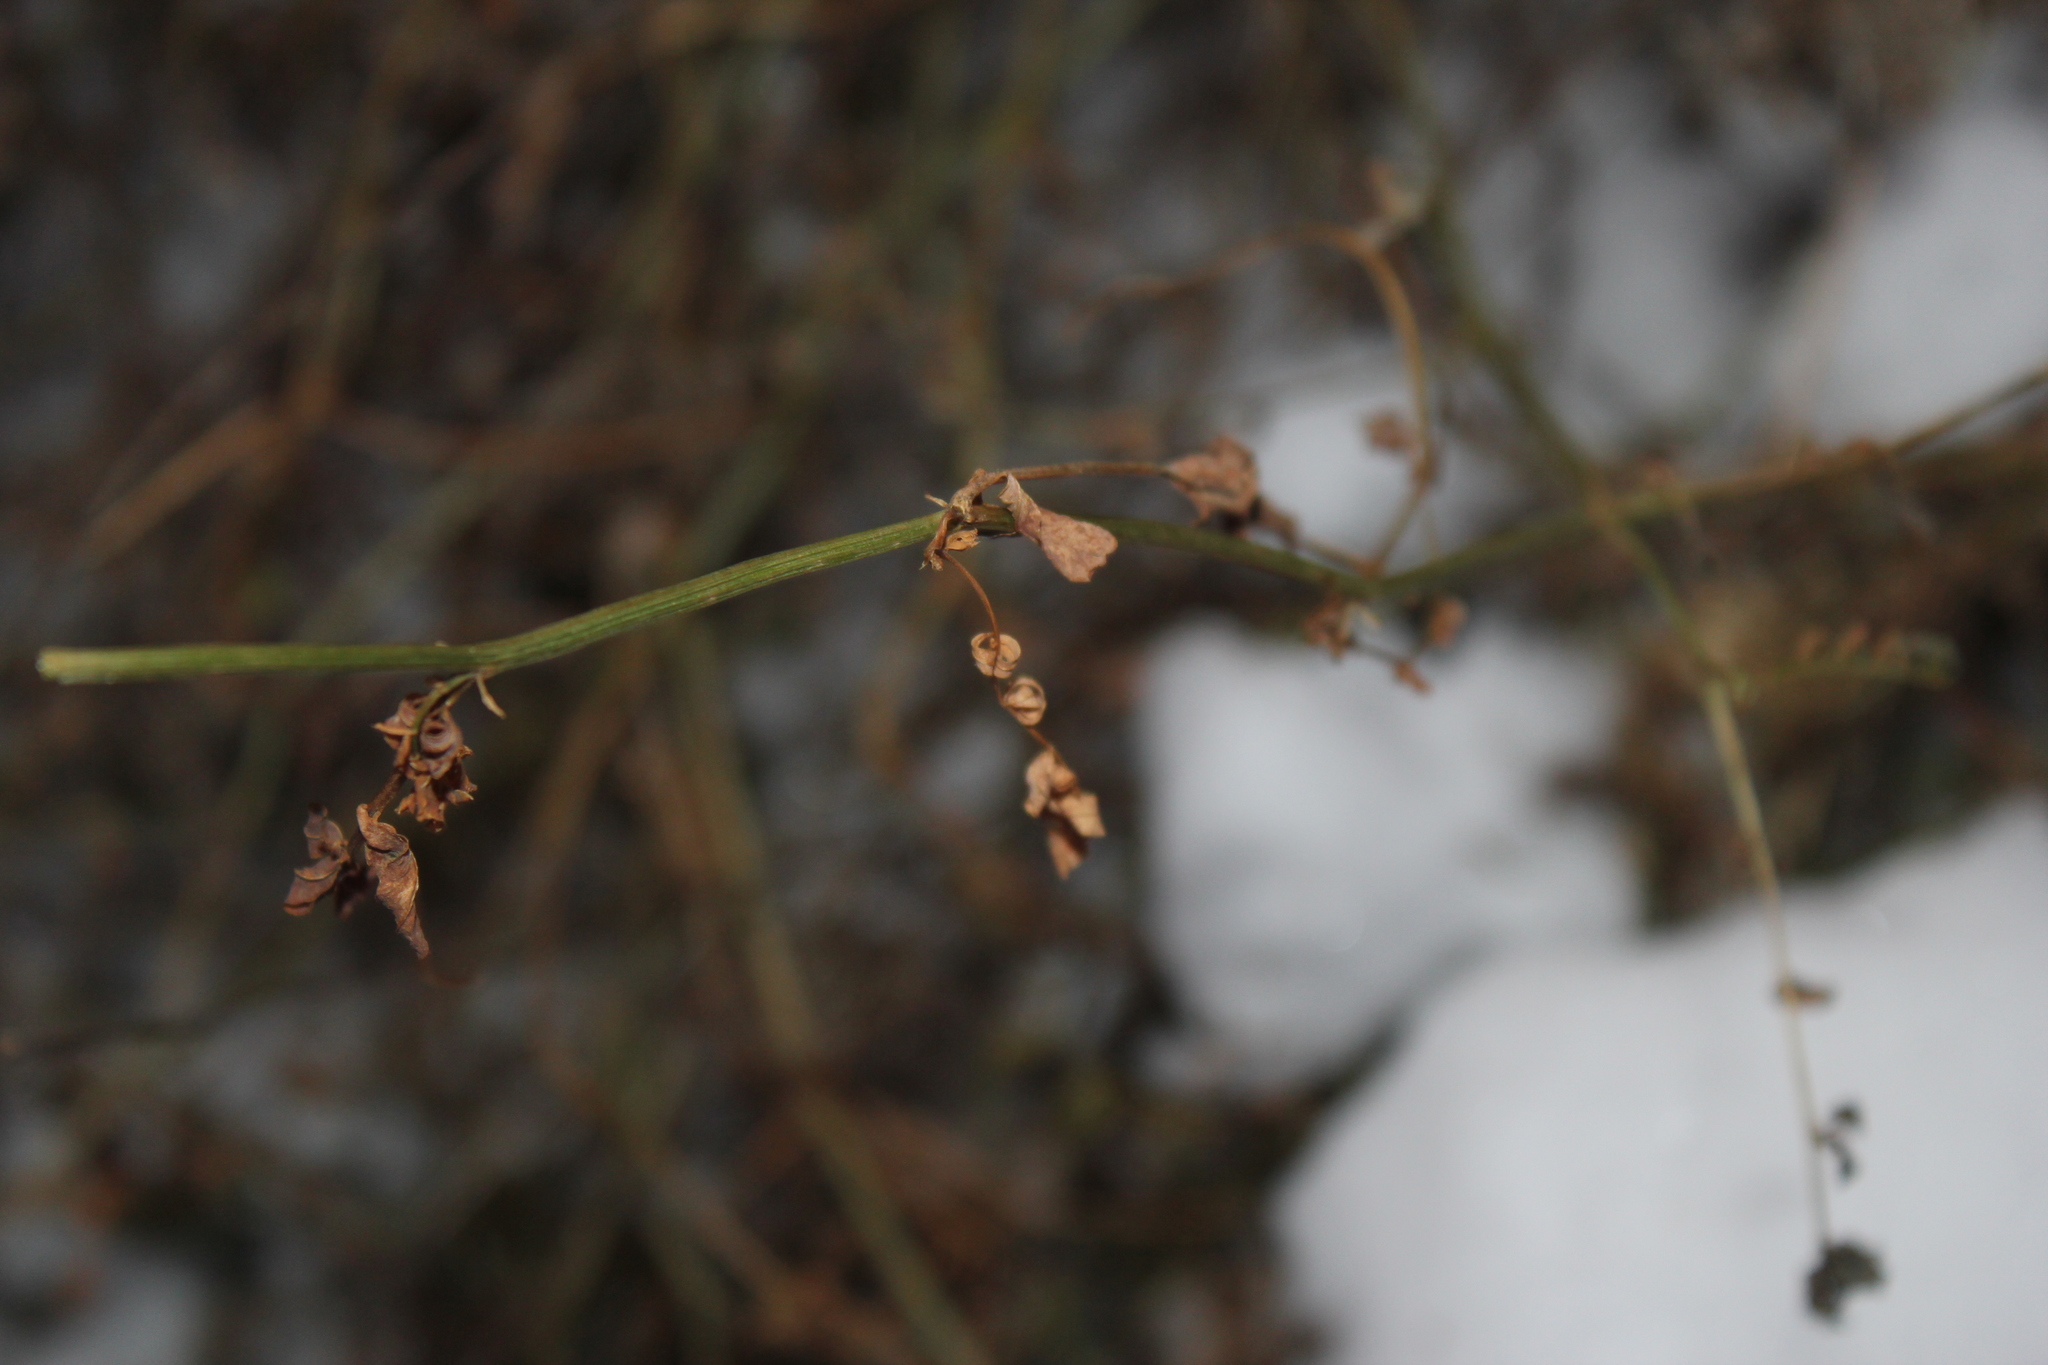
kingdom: Plantae
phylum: Tracheophyta
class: Magnoliopsida
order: Fabales
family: Fabaceae
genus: Faboidea
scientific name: Faboidea
